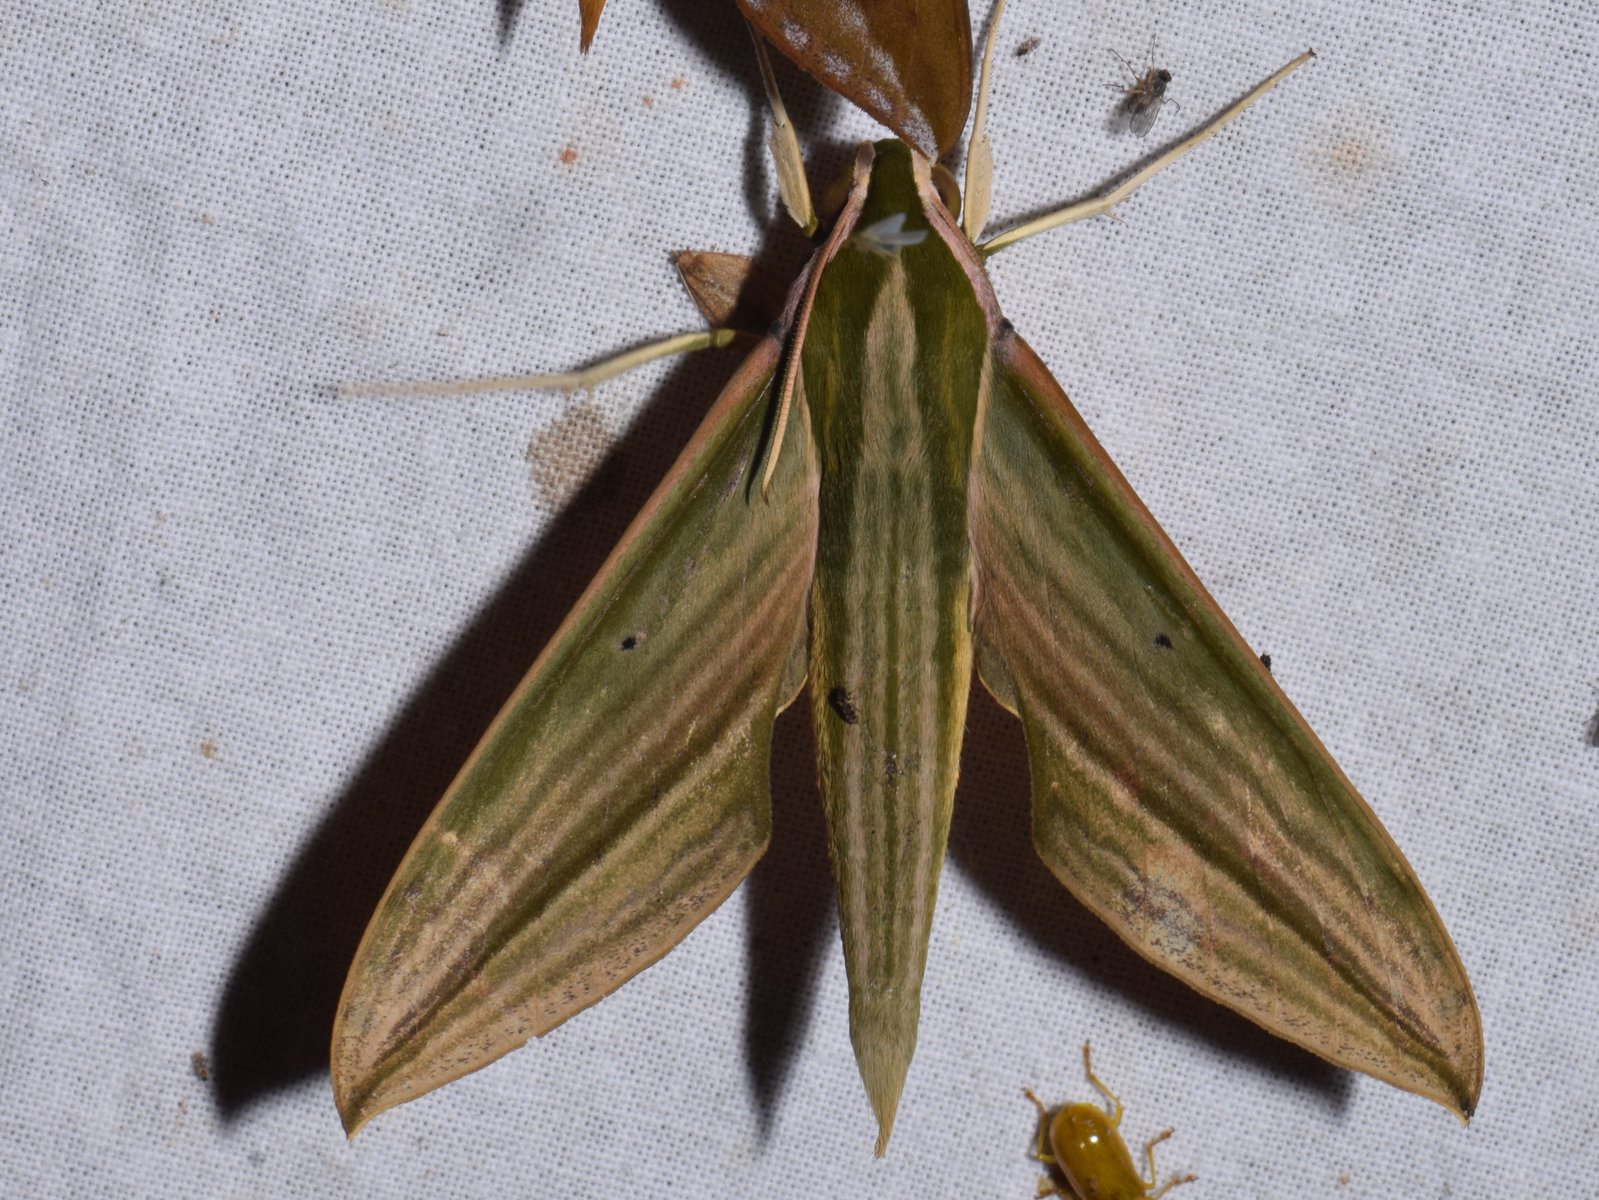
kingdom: Animalia
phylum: Arthropoda
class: Insecta
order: Lepidoptera
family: Sphingidae
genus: Cechetra
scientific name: Cechetra lineosa
